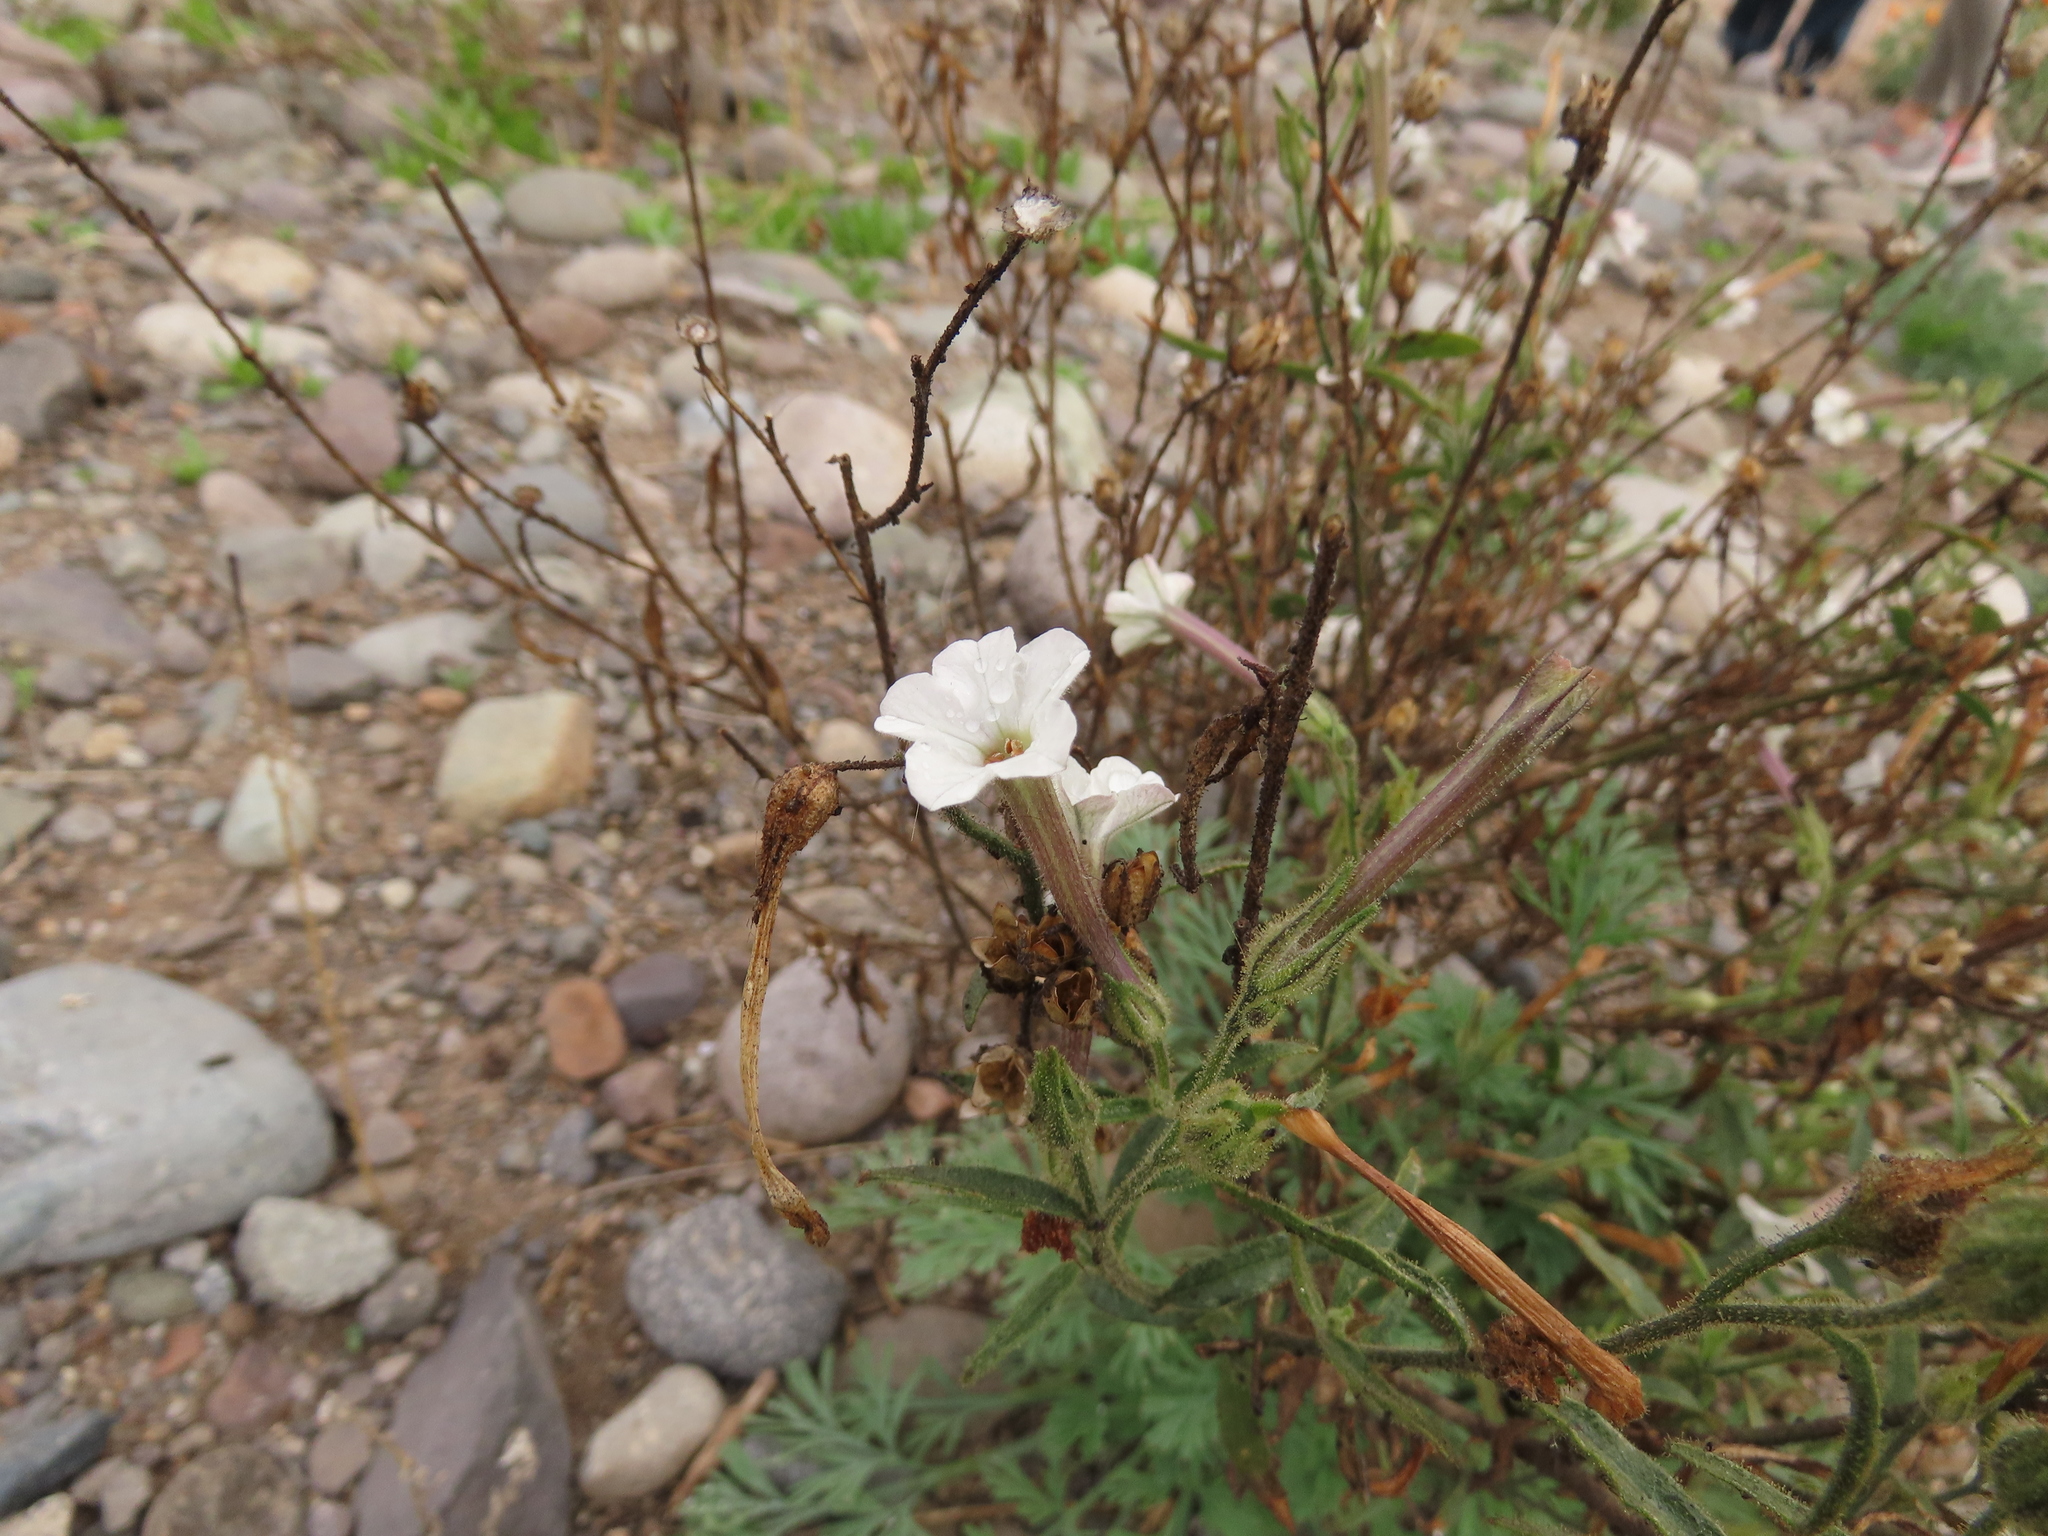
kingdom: Plantae
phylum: Tracheophyta
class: Magnoliopsida
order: Solanales
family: Solanaceae
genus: Nicotiana
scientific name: Nicotiana acuminata
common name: Manyflower tobacco
